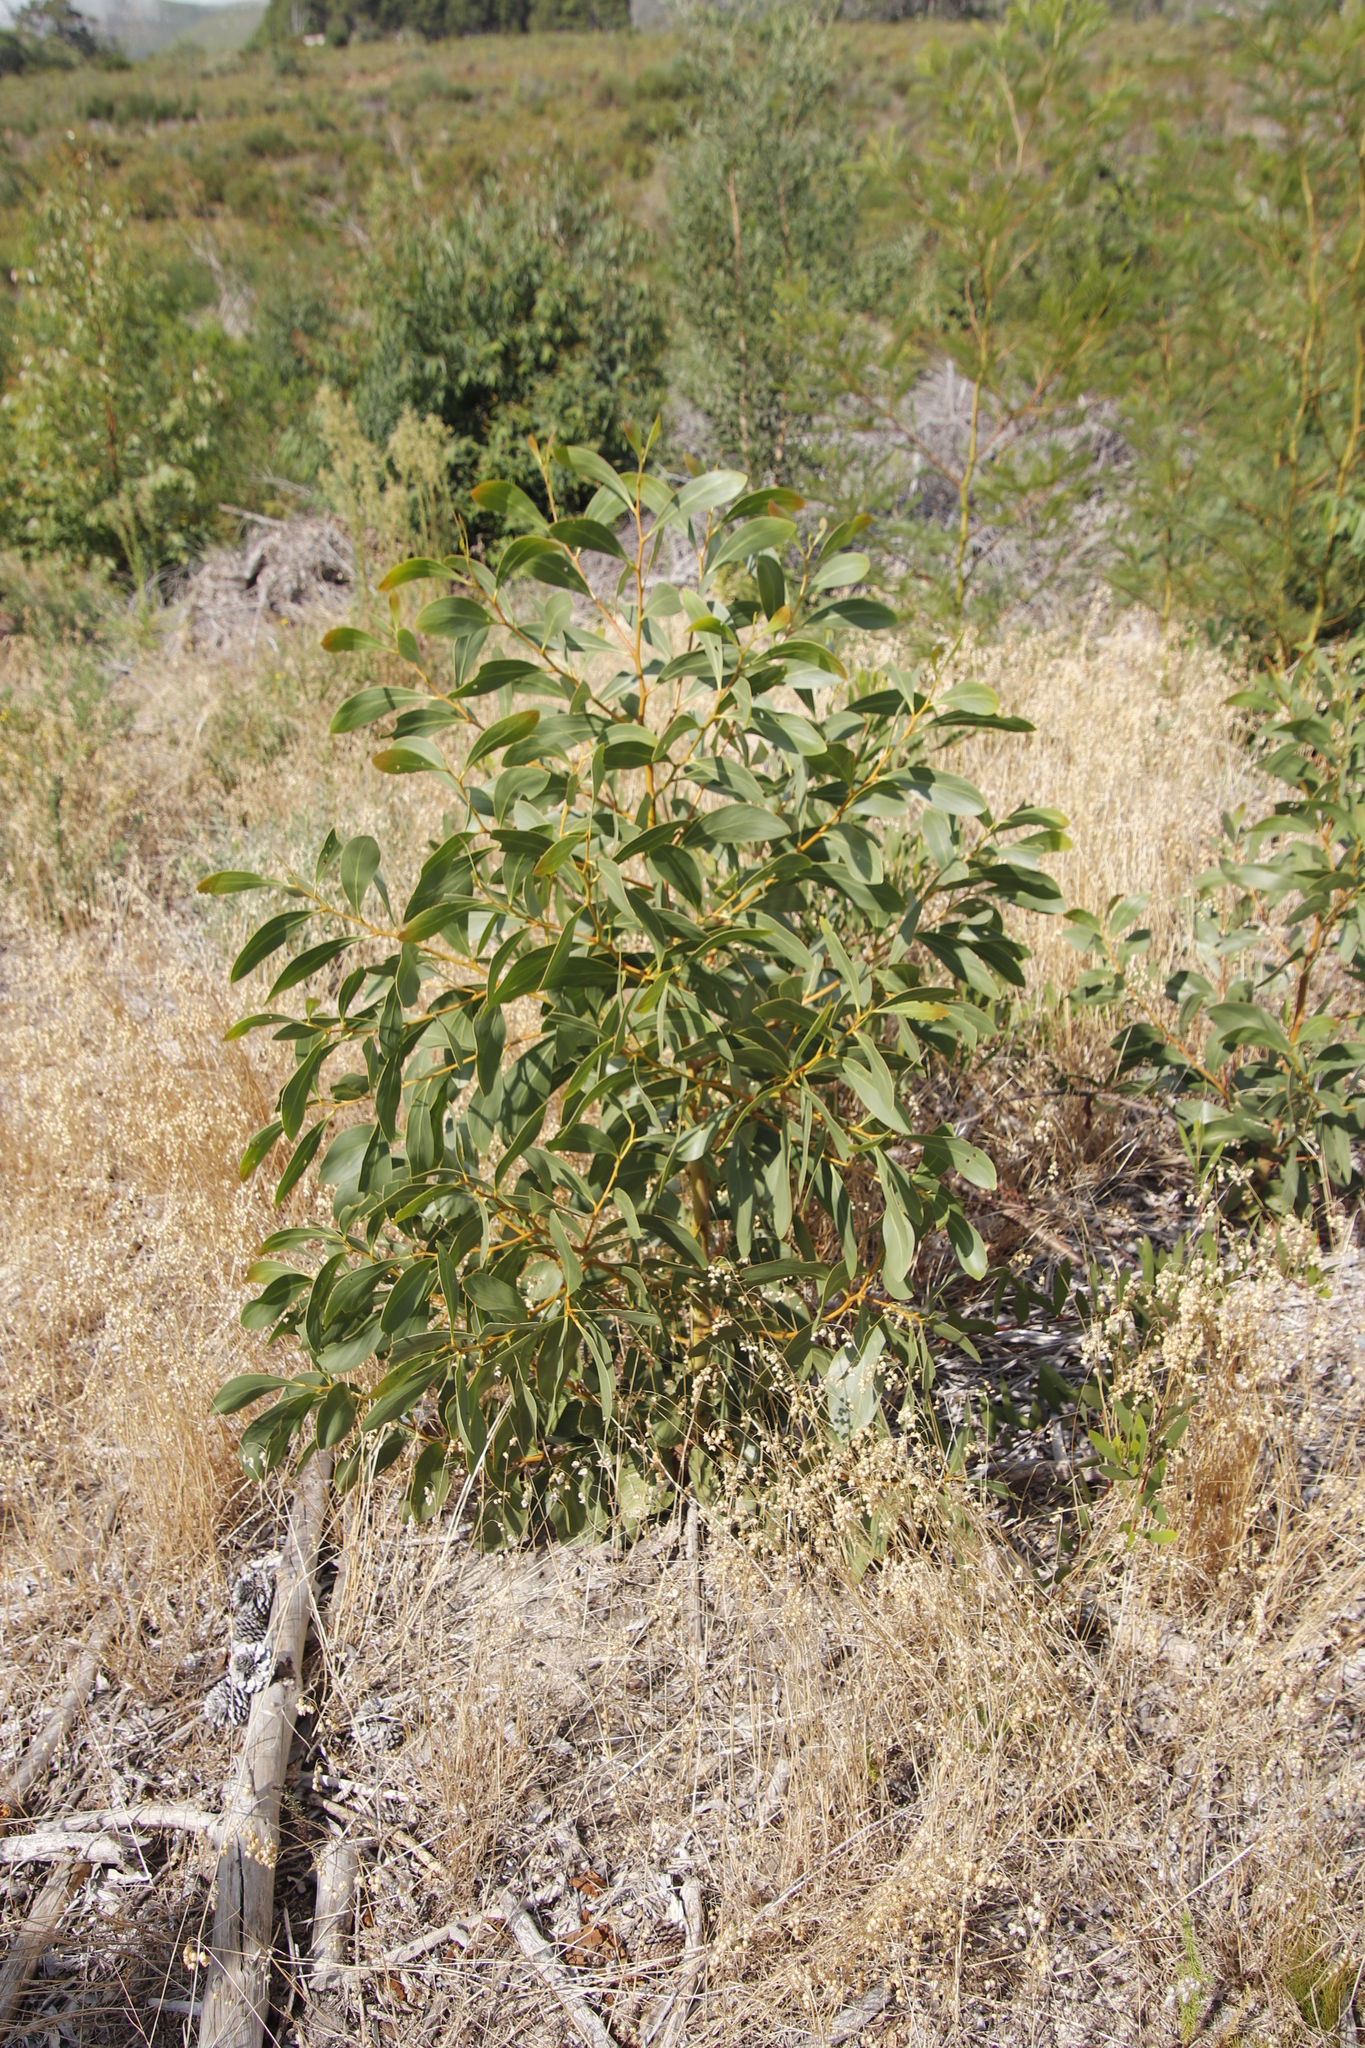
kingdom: Plantae
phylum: Tracheophyta
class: Magnoliopsida
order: Fabales
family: Fabaceae
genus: Acacia
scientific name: Acacia pycnantha
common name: Golden wattle
